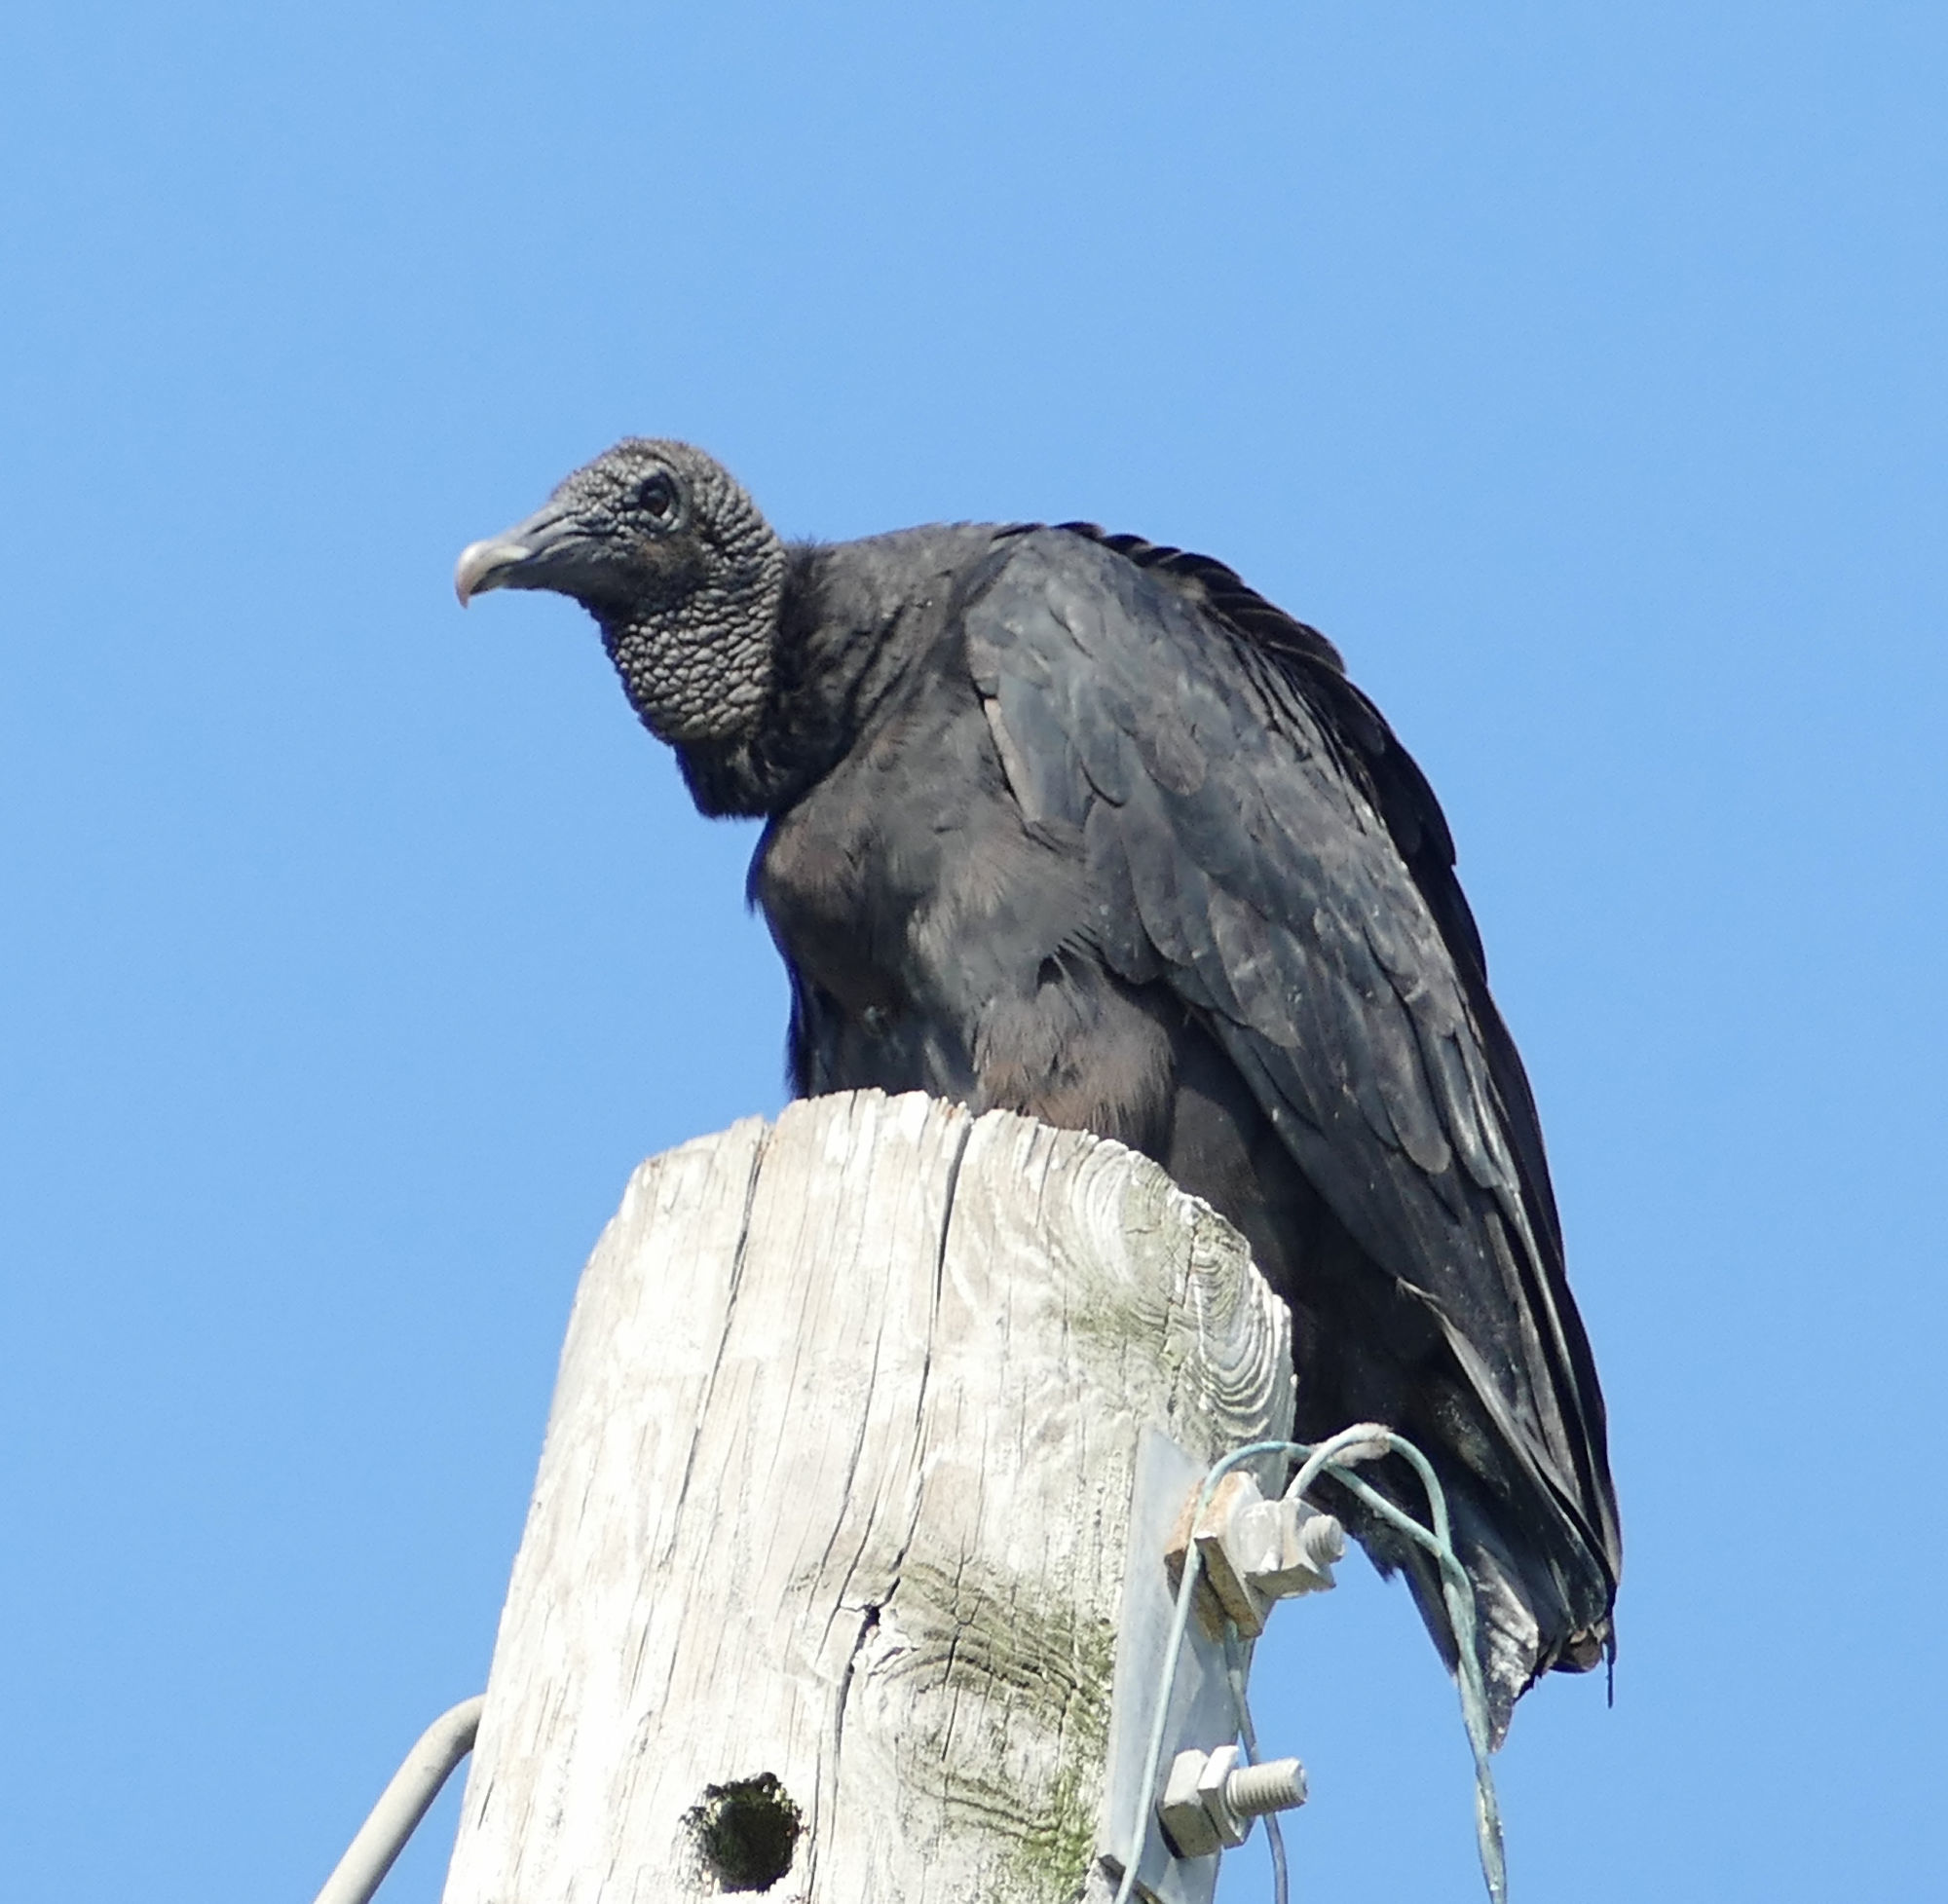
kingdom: Animalia
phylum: Chordata
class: Aves
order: Accipitriformes
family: Cathartidae
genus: Coragyps
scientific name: Coragyps atratus
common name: Black vulture
